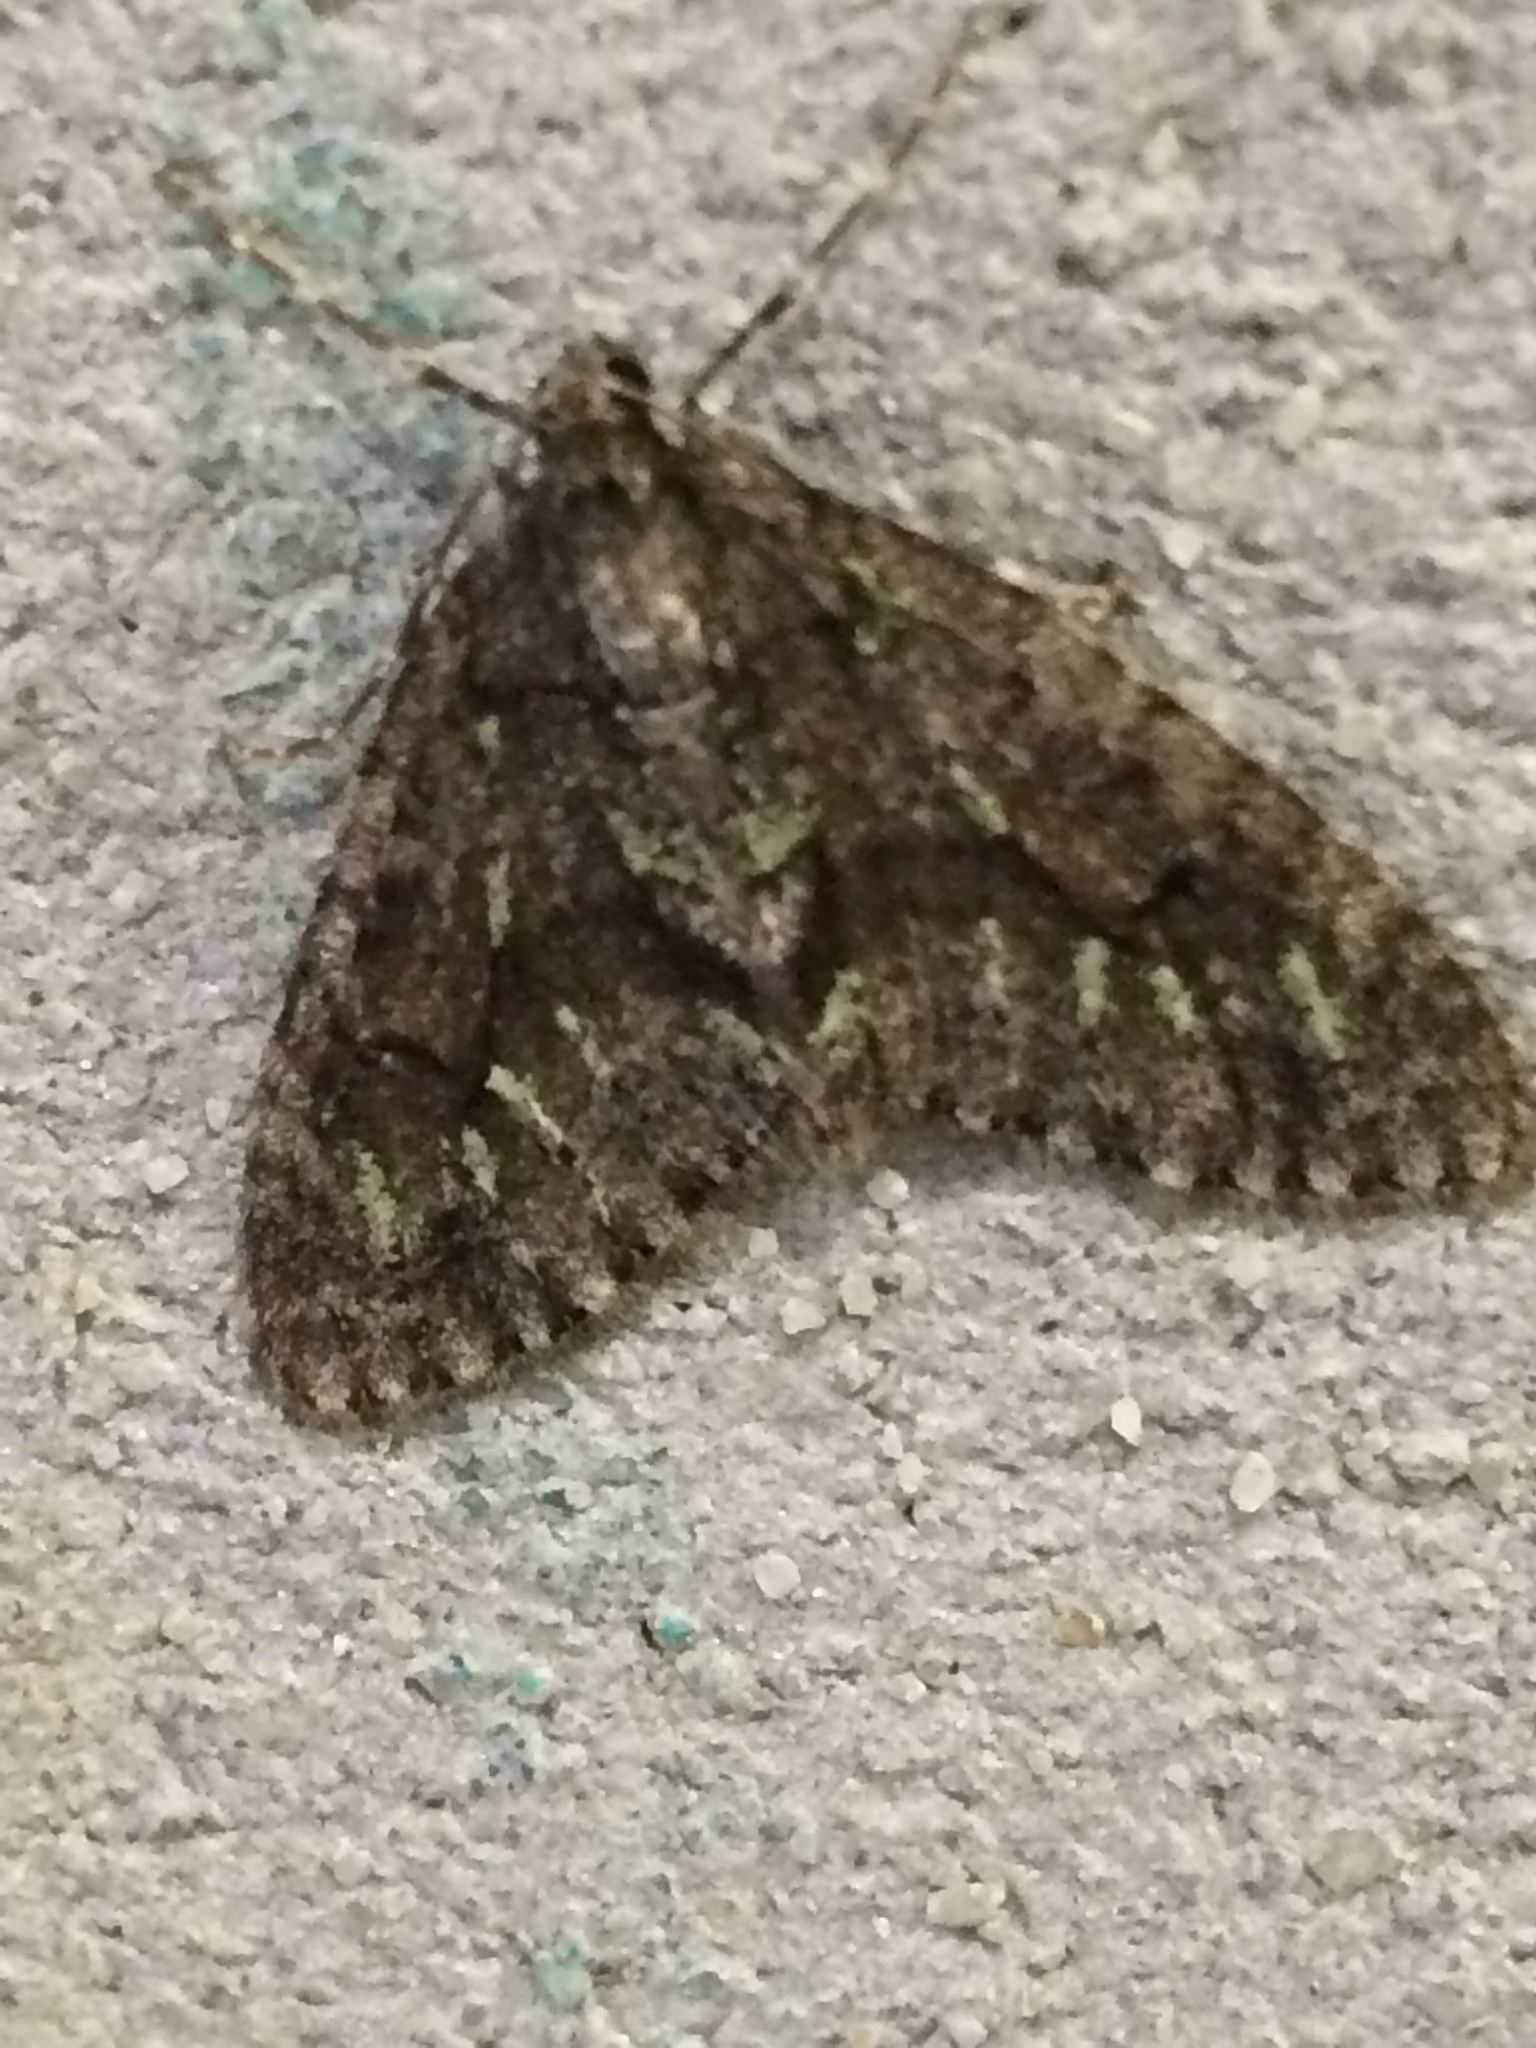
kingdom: Animalia
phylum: Arthropoda
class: Insecta
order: Lepidoptera
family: Geometridae
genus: Cladara
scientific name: Cladara limitaria
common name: Mottled gray carpet
